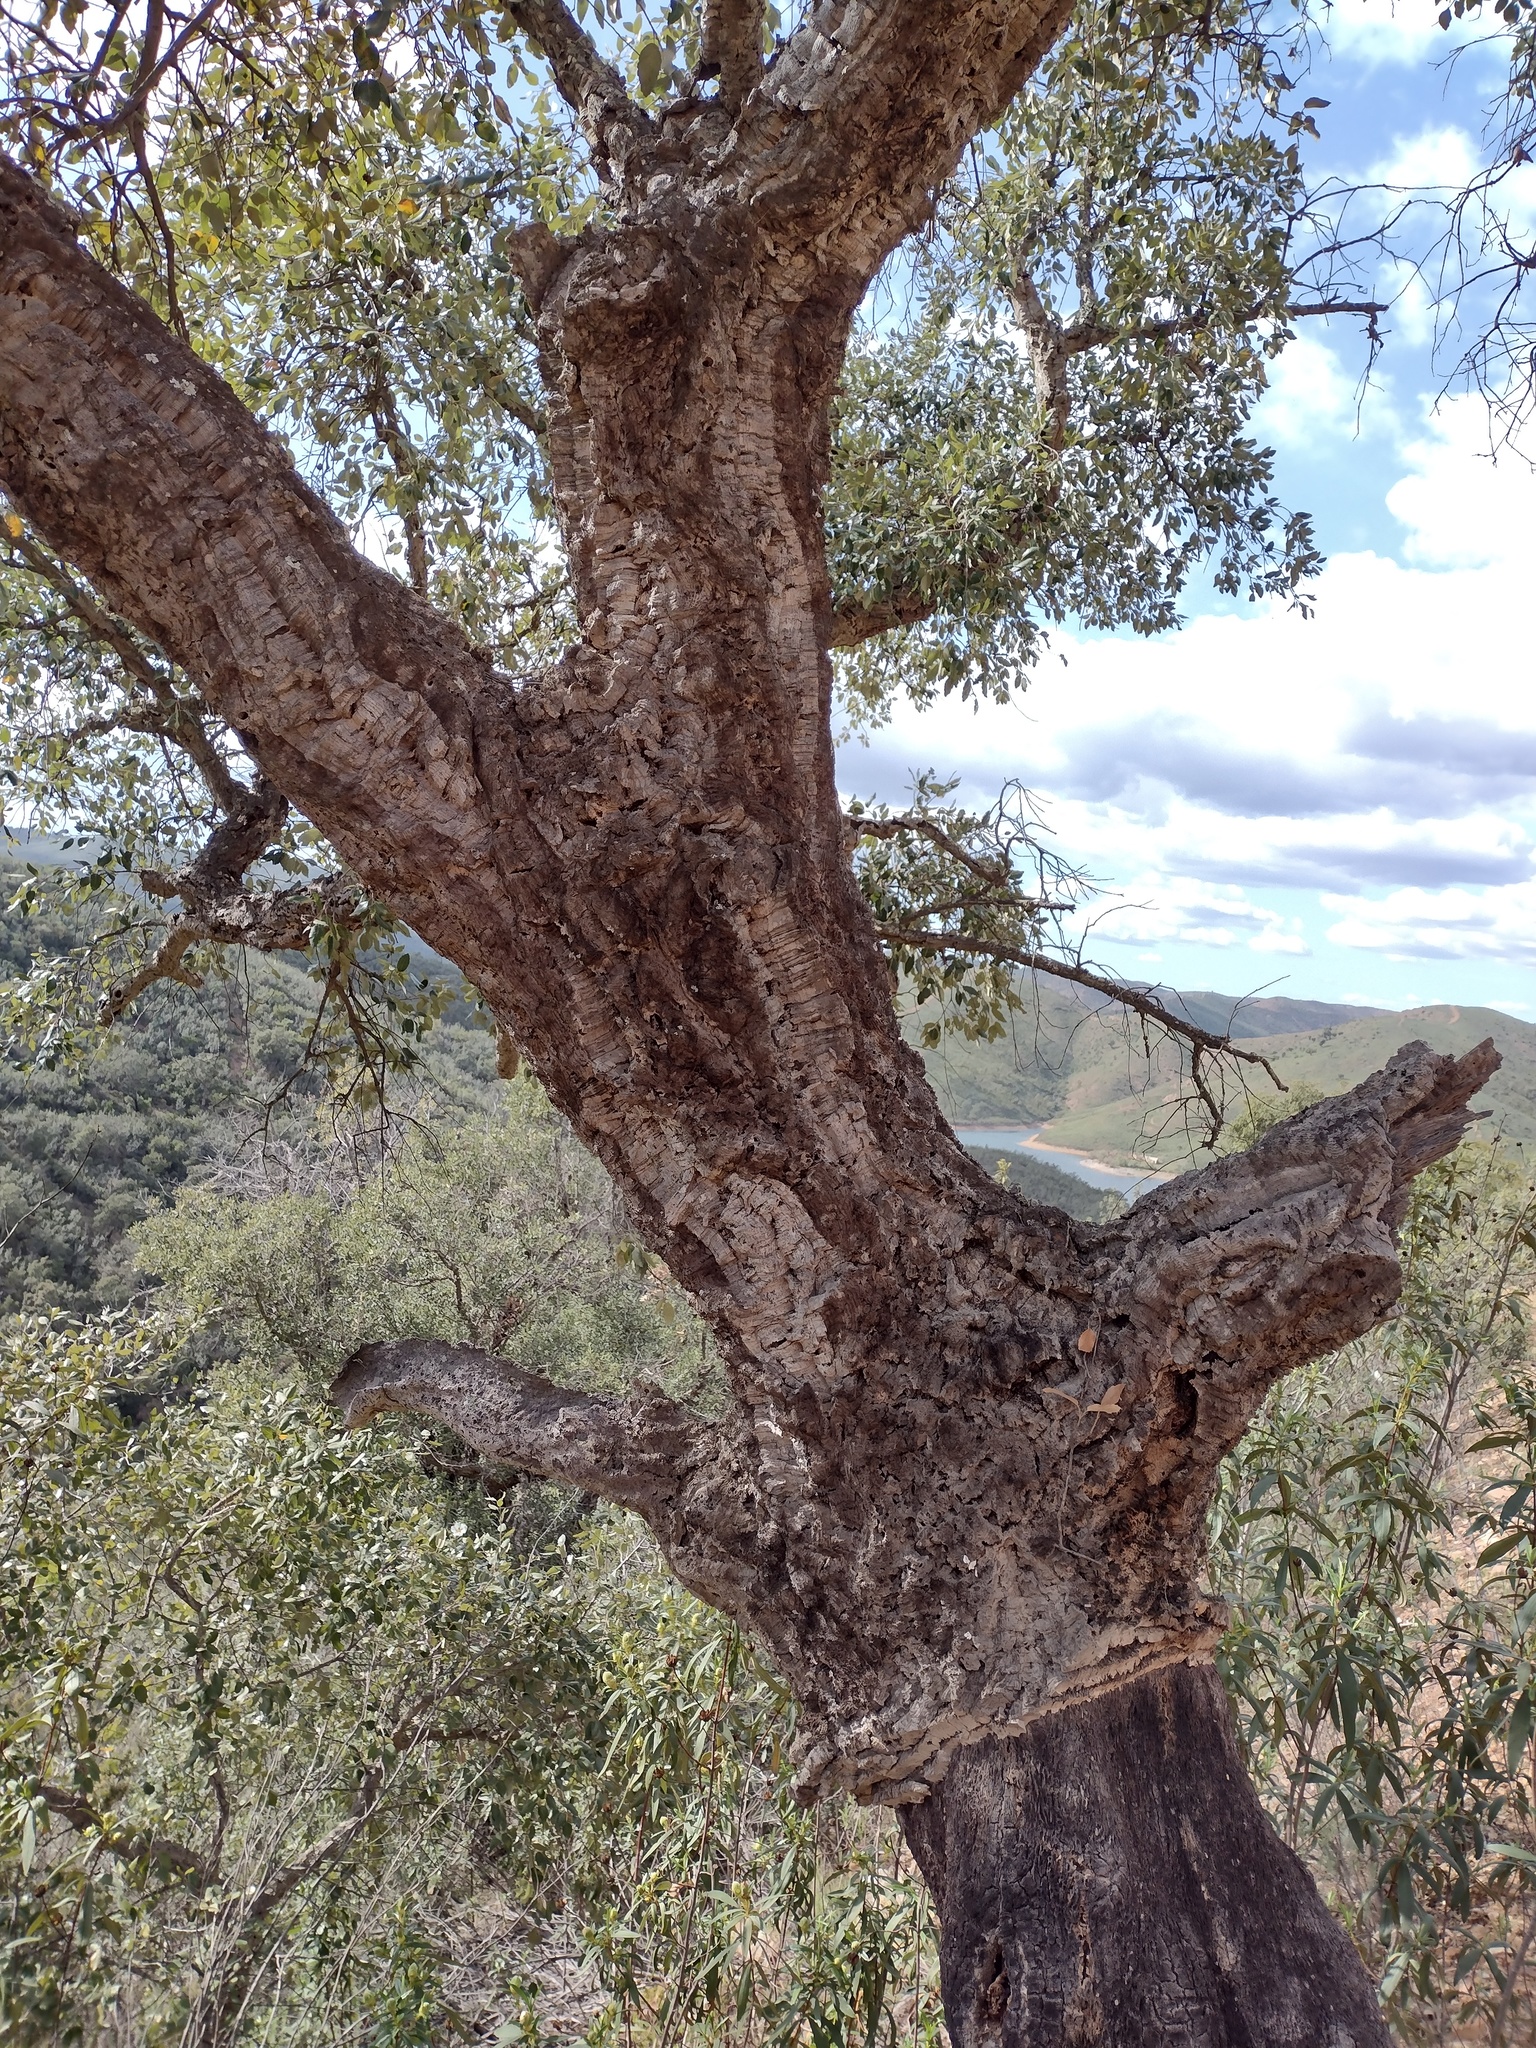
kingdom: Plantae
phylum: Tracheophyta
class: Magnoliopsida
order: Fagales
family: Fagaceae
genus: Quercus
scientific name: Quercus suber
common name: Cork oak
